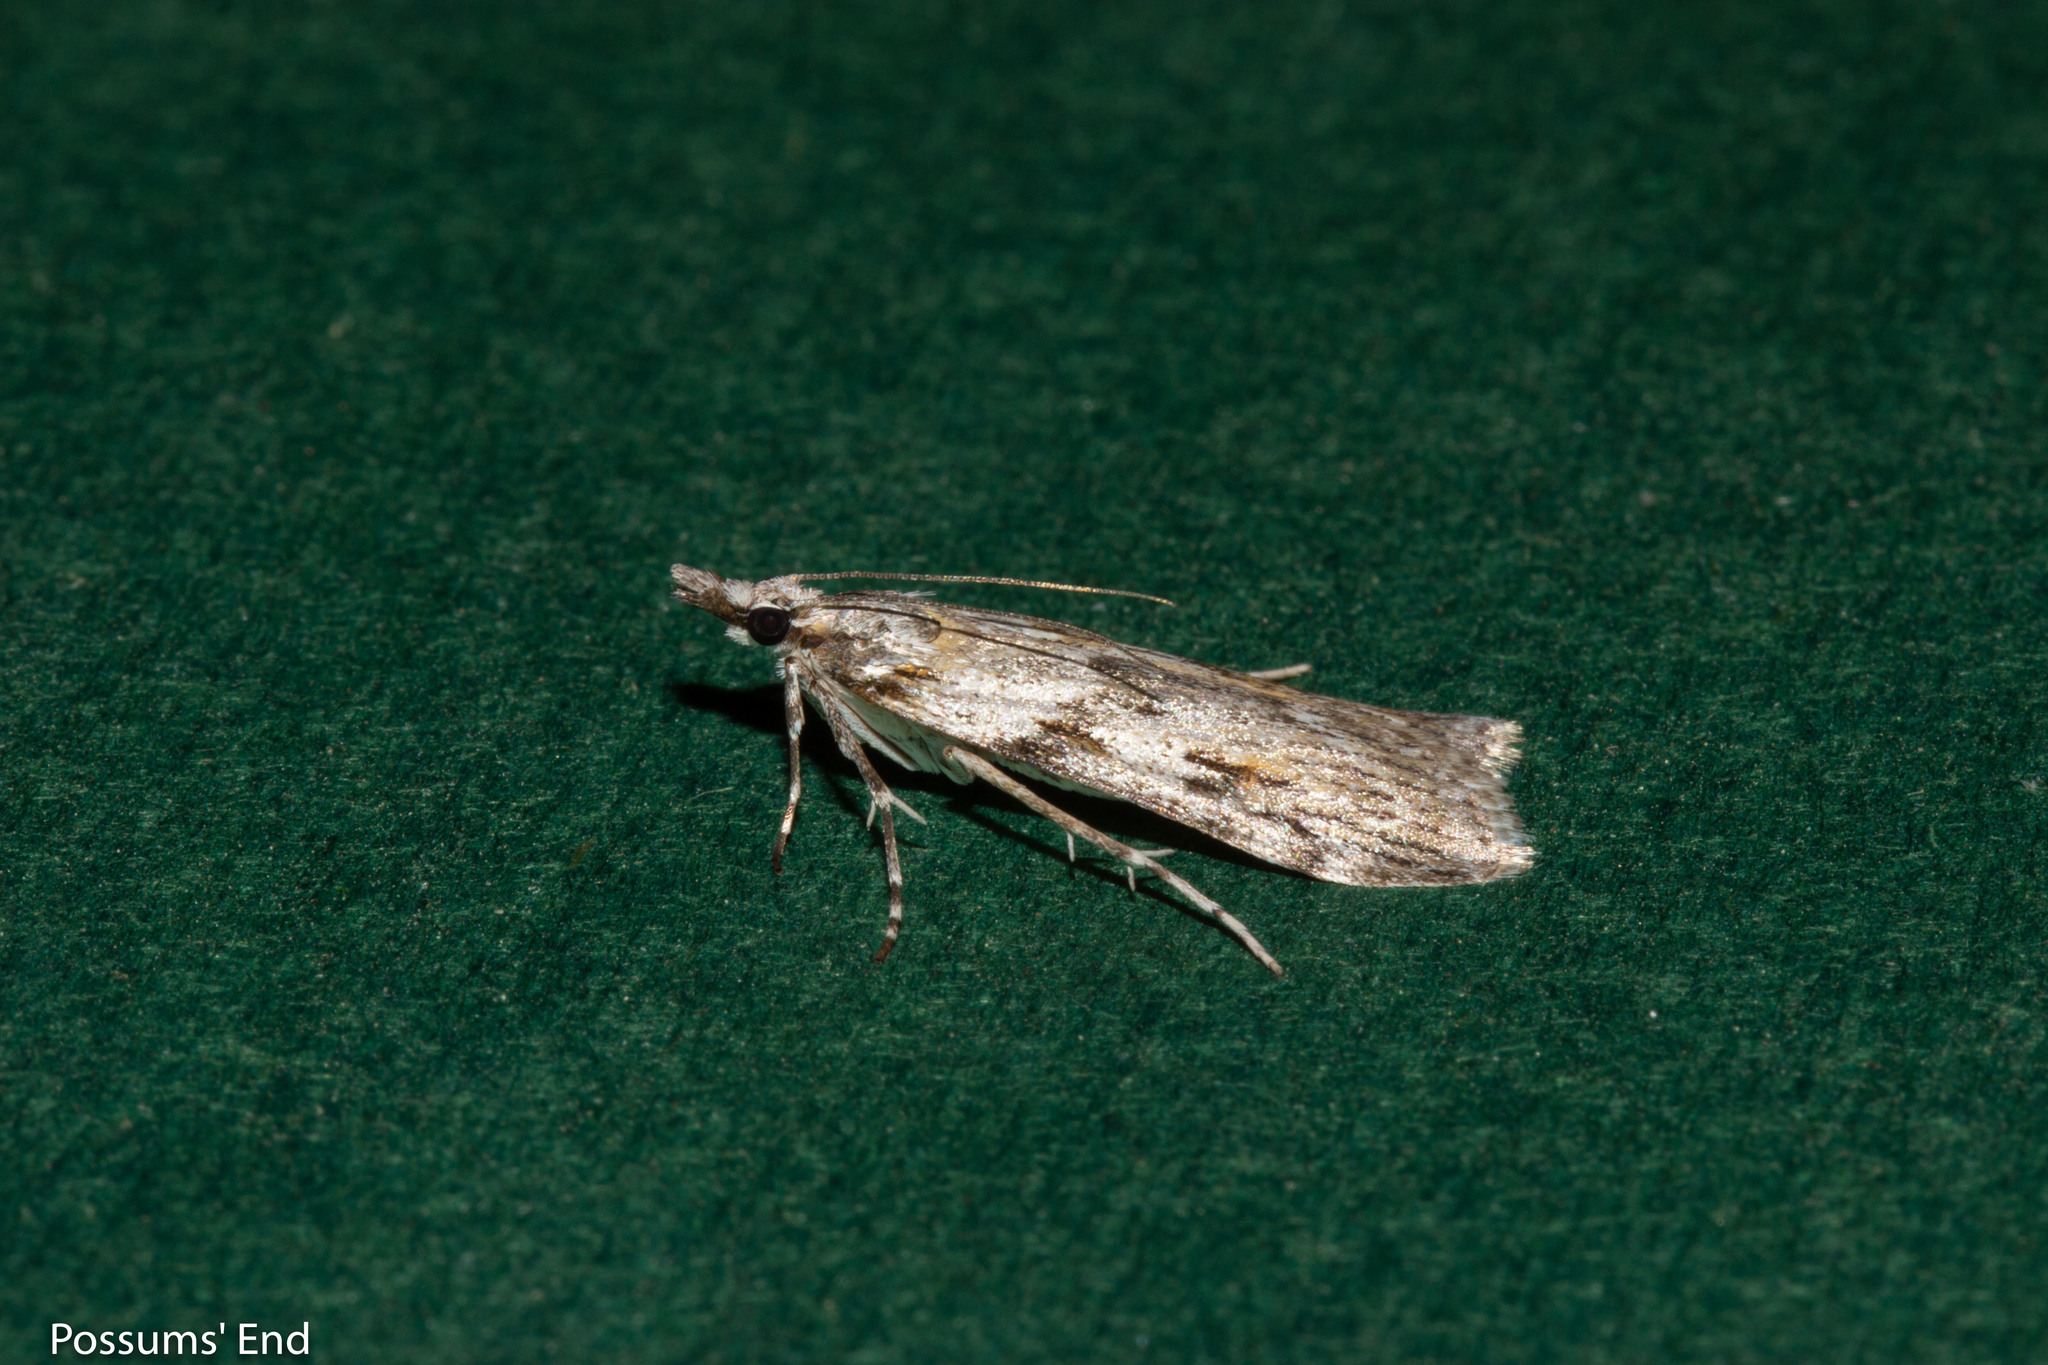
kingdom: Animalia
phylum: Arthropoda
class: Insecta
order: Lepidoptera
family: Crambidae
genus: Scoparia
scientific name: Scoparia halopis
